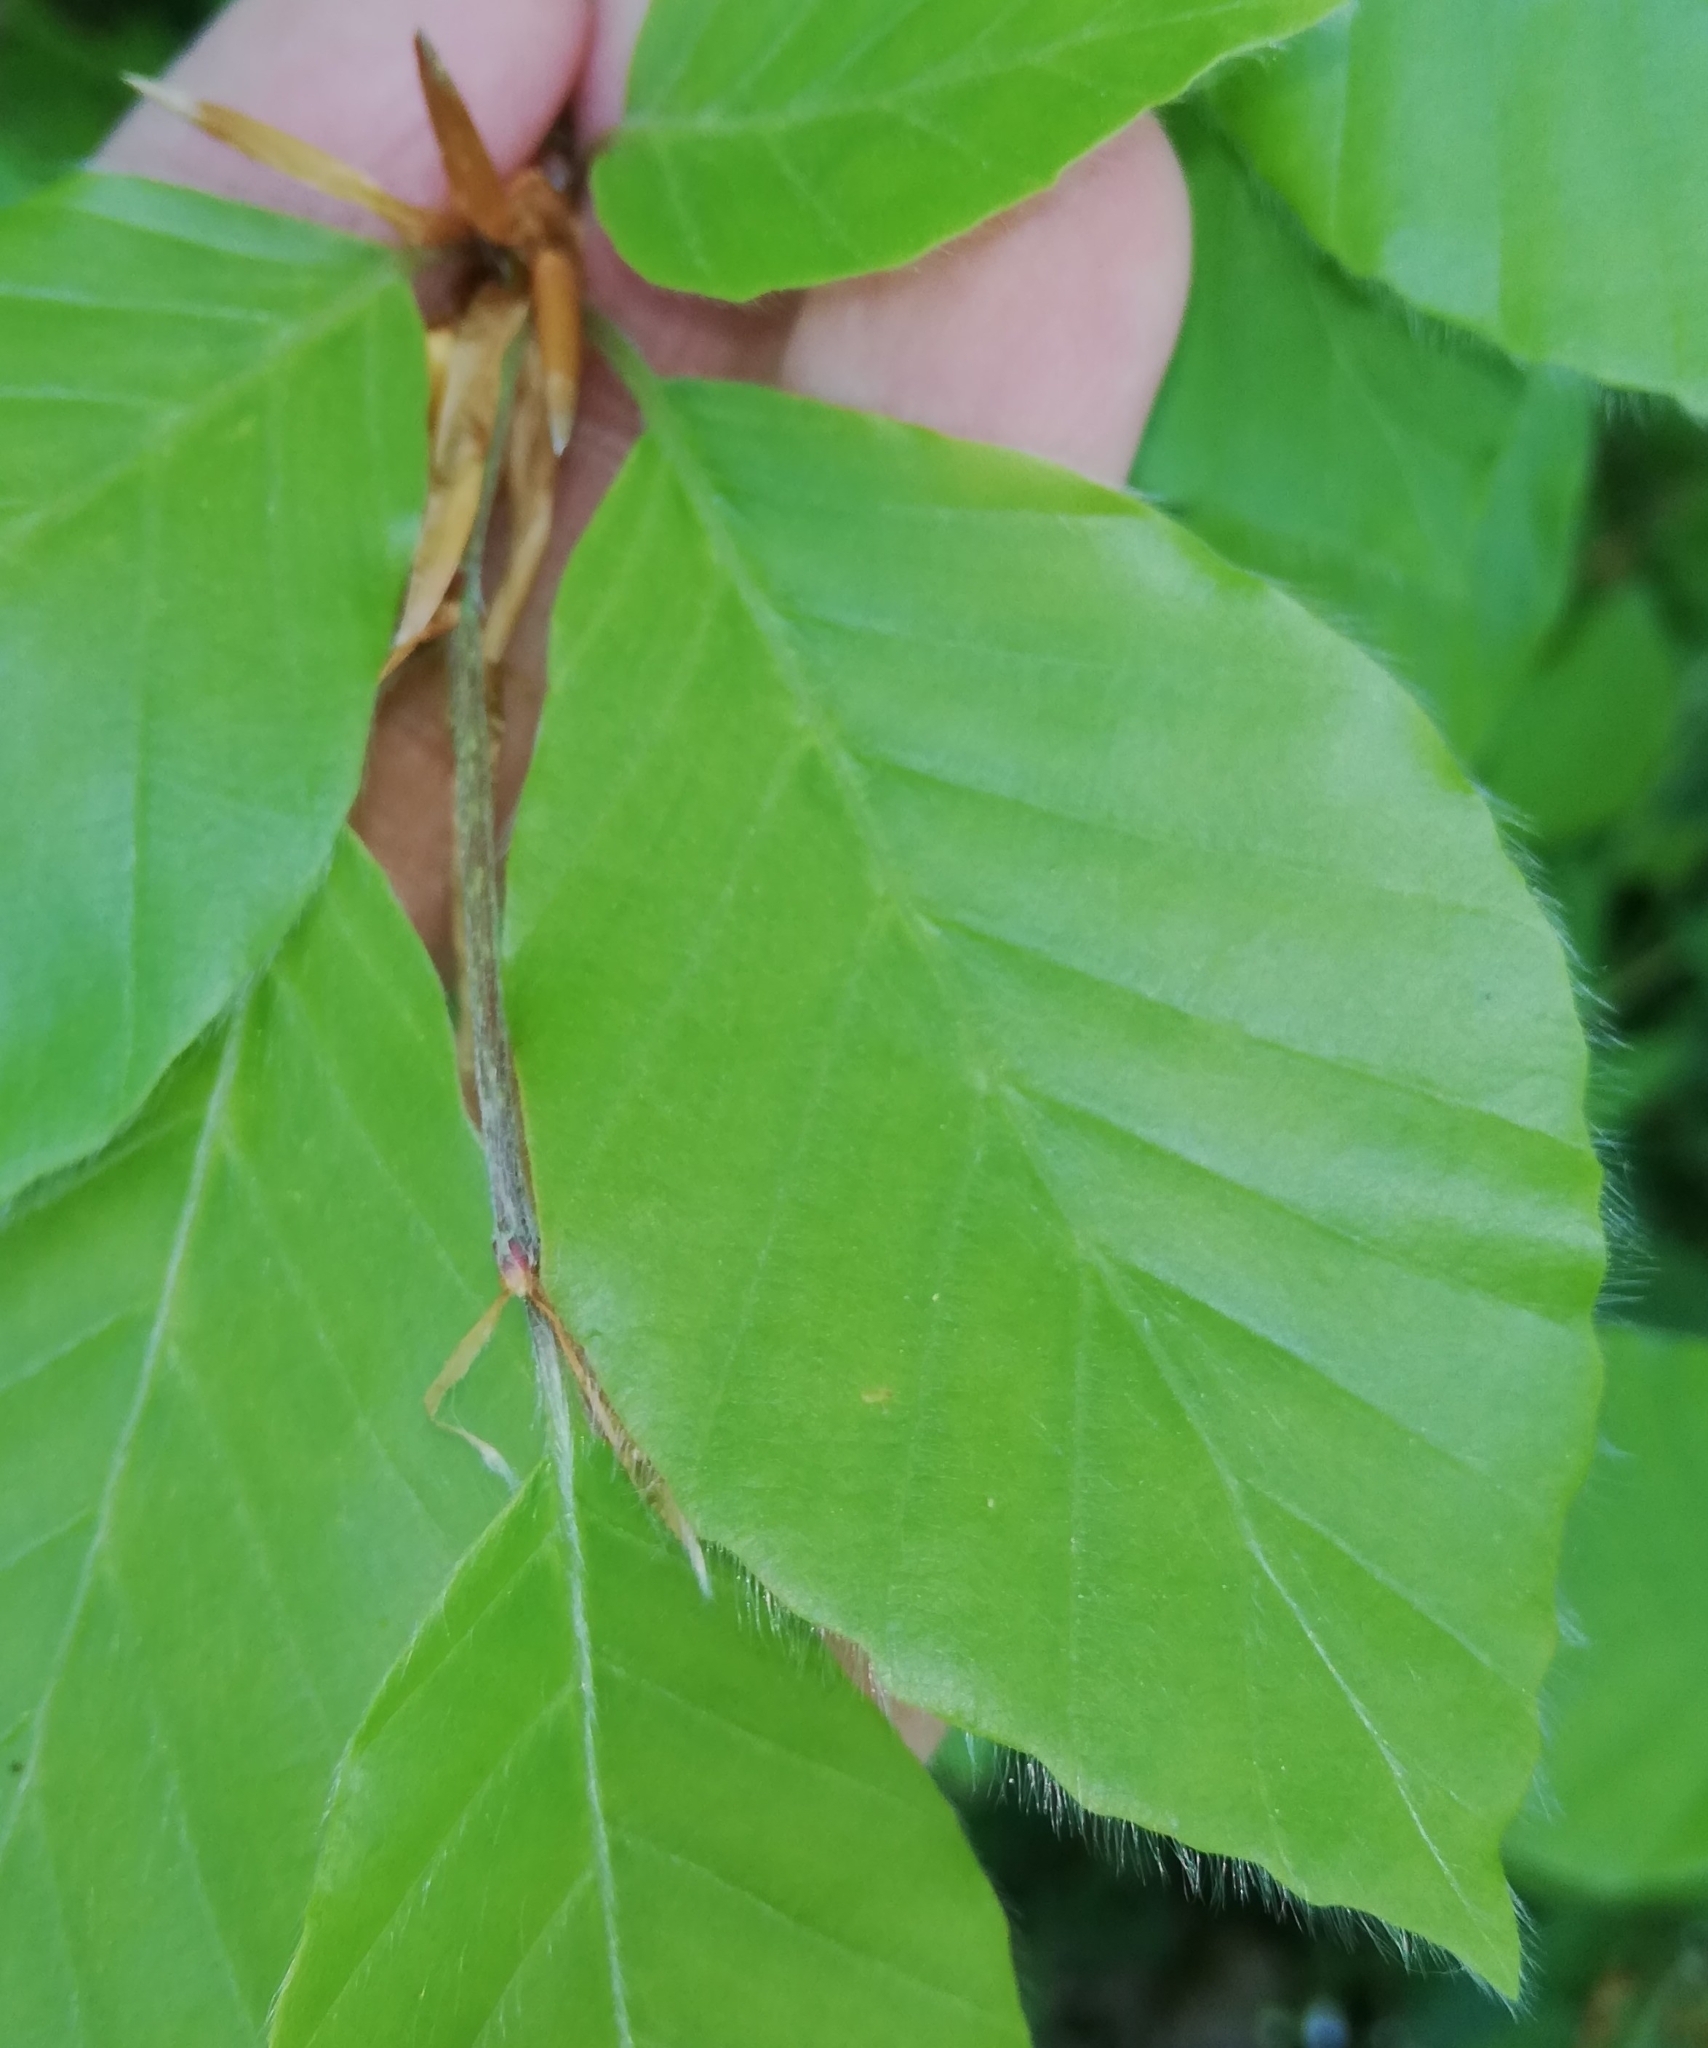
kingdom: Plantae
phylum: Tracheophyta
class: Magnoliopsida
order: Fagales
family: Fagaceae
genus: Fagus
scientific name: Fagus sylvatica
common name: Beech
